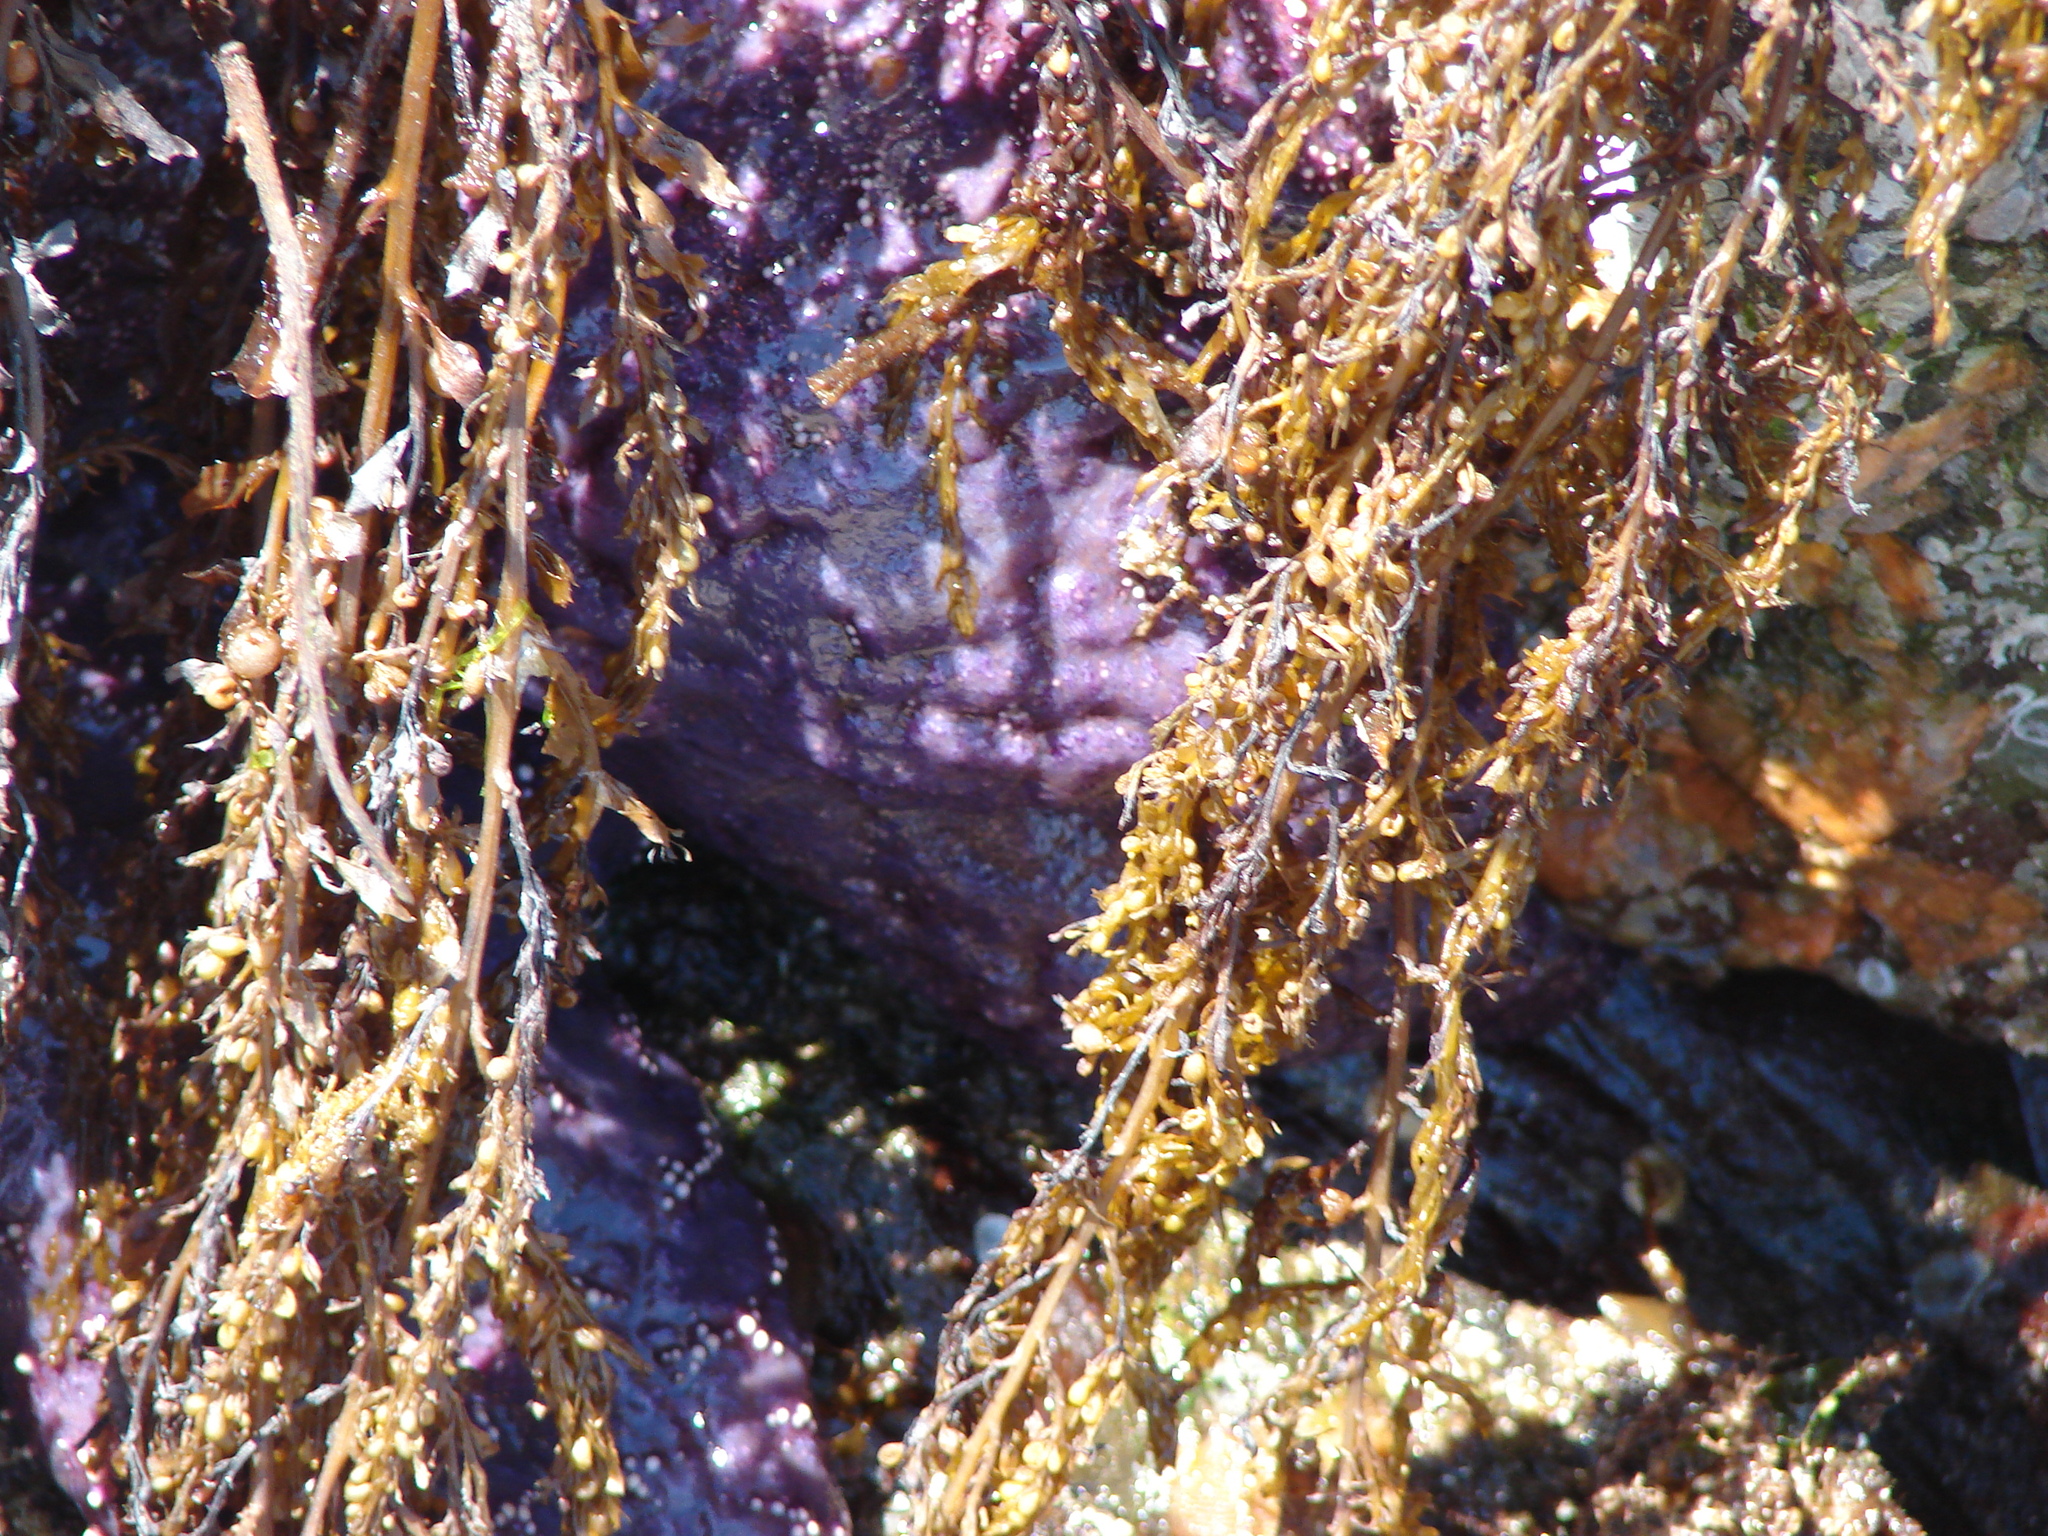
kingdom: Animalia
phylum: Echinodermata
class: Asteroidea
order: Forcipulatida
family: Asteriidae
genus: Pisaster
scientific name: Pisaster ochraceus
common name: Ochre stars
